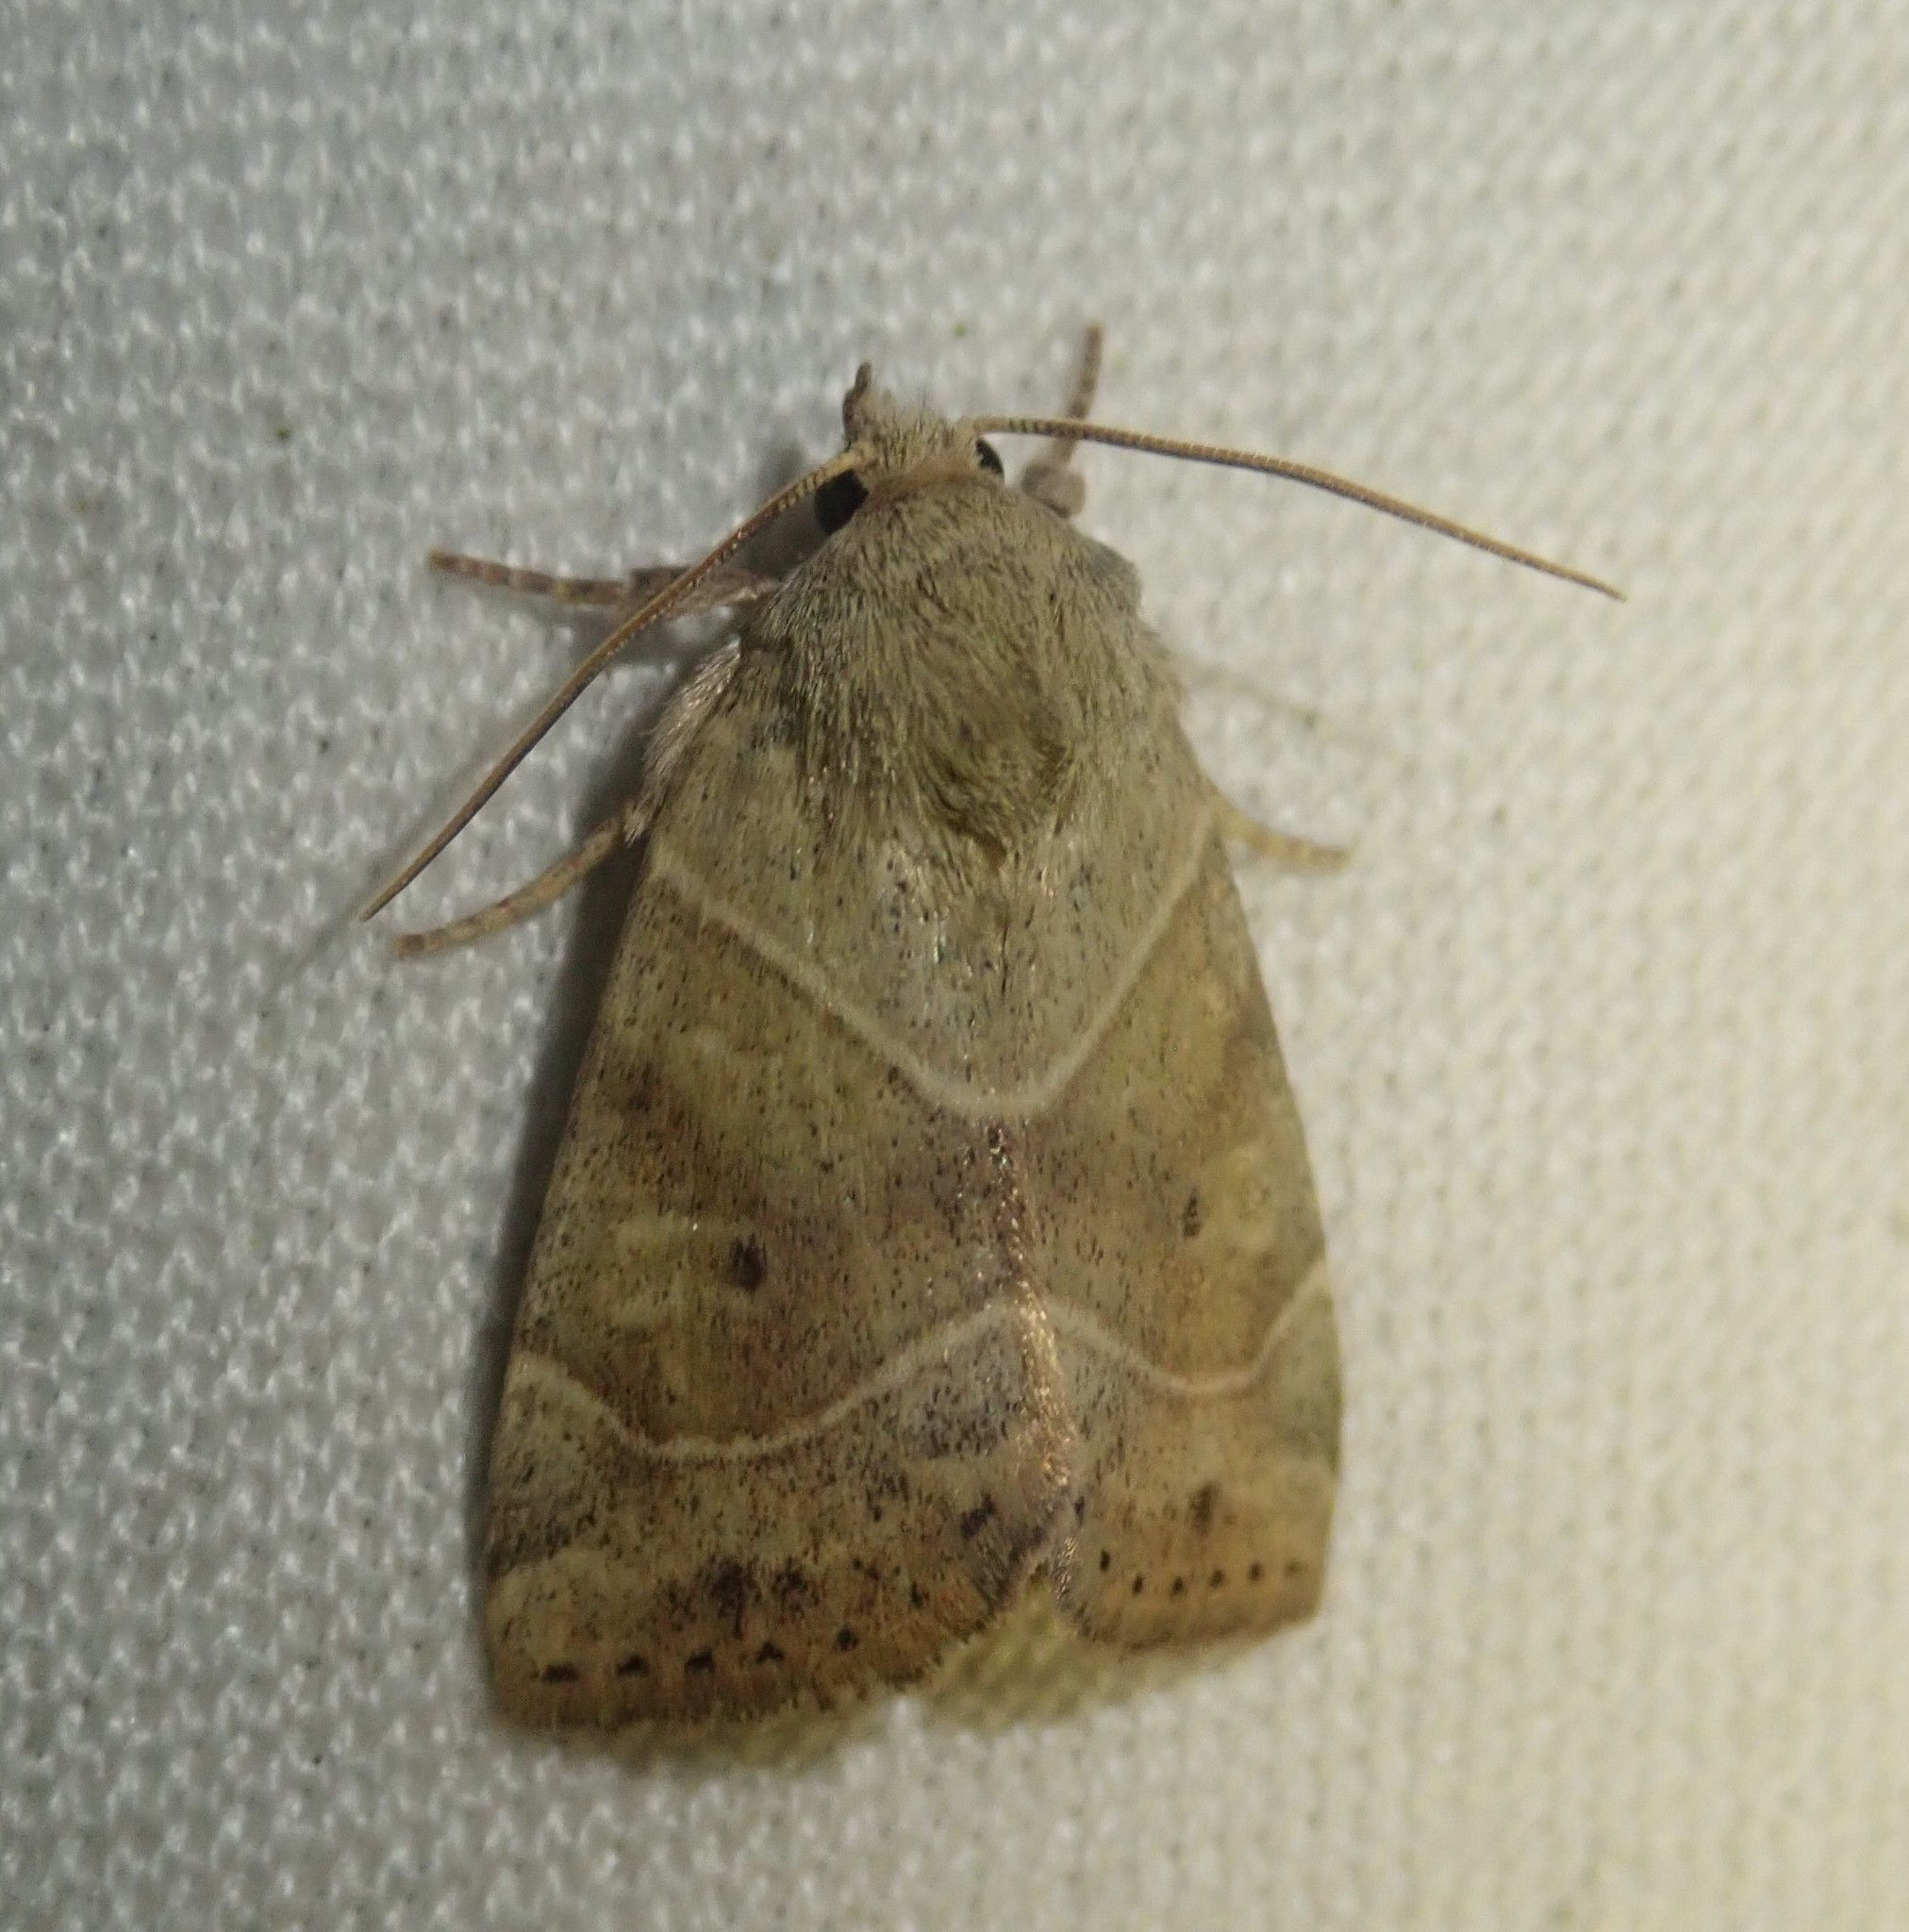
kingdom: Animalia
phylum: Arthropoda
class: Insecta
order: Lepidoptera
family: Noctuidae
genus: Cosmia
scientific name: Cosmia trapezina
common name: Dun-bar
